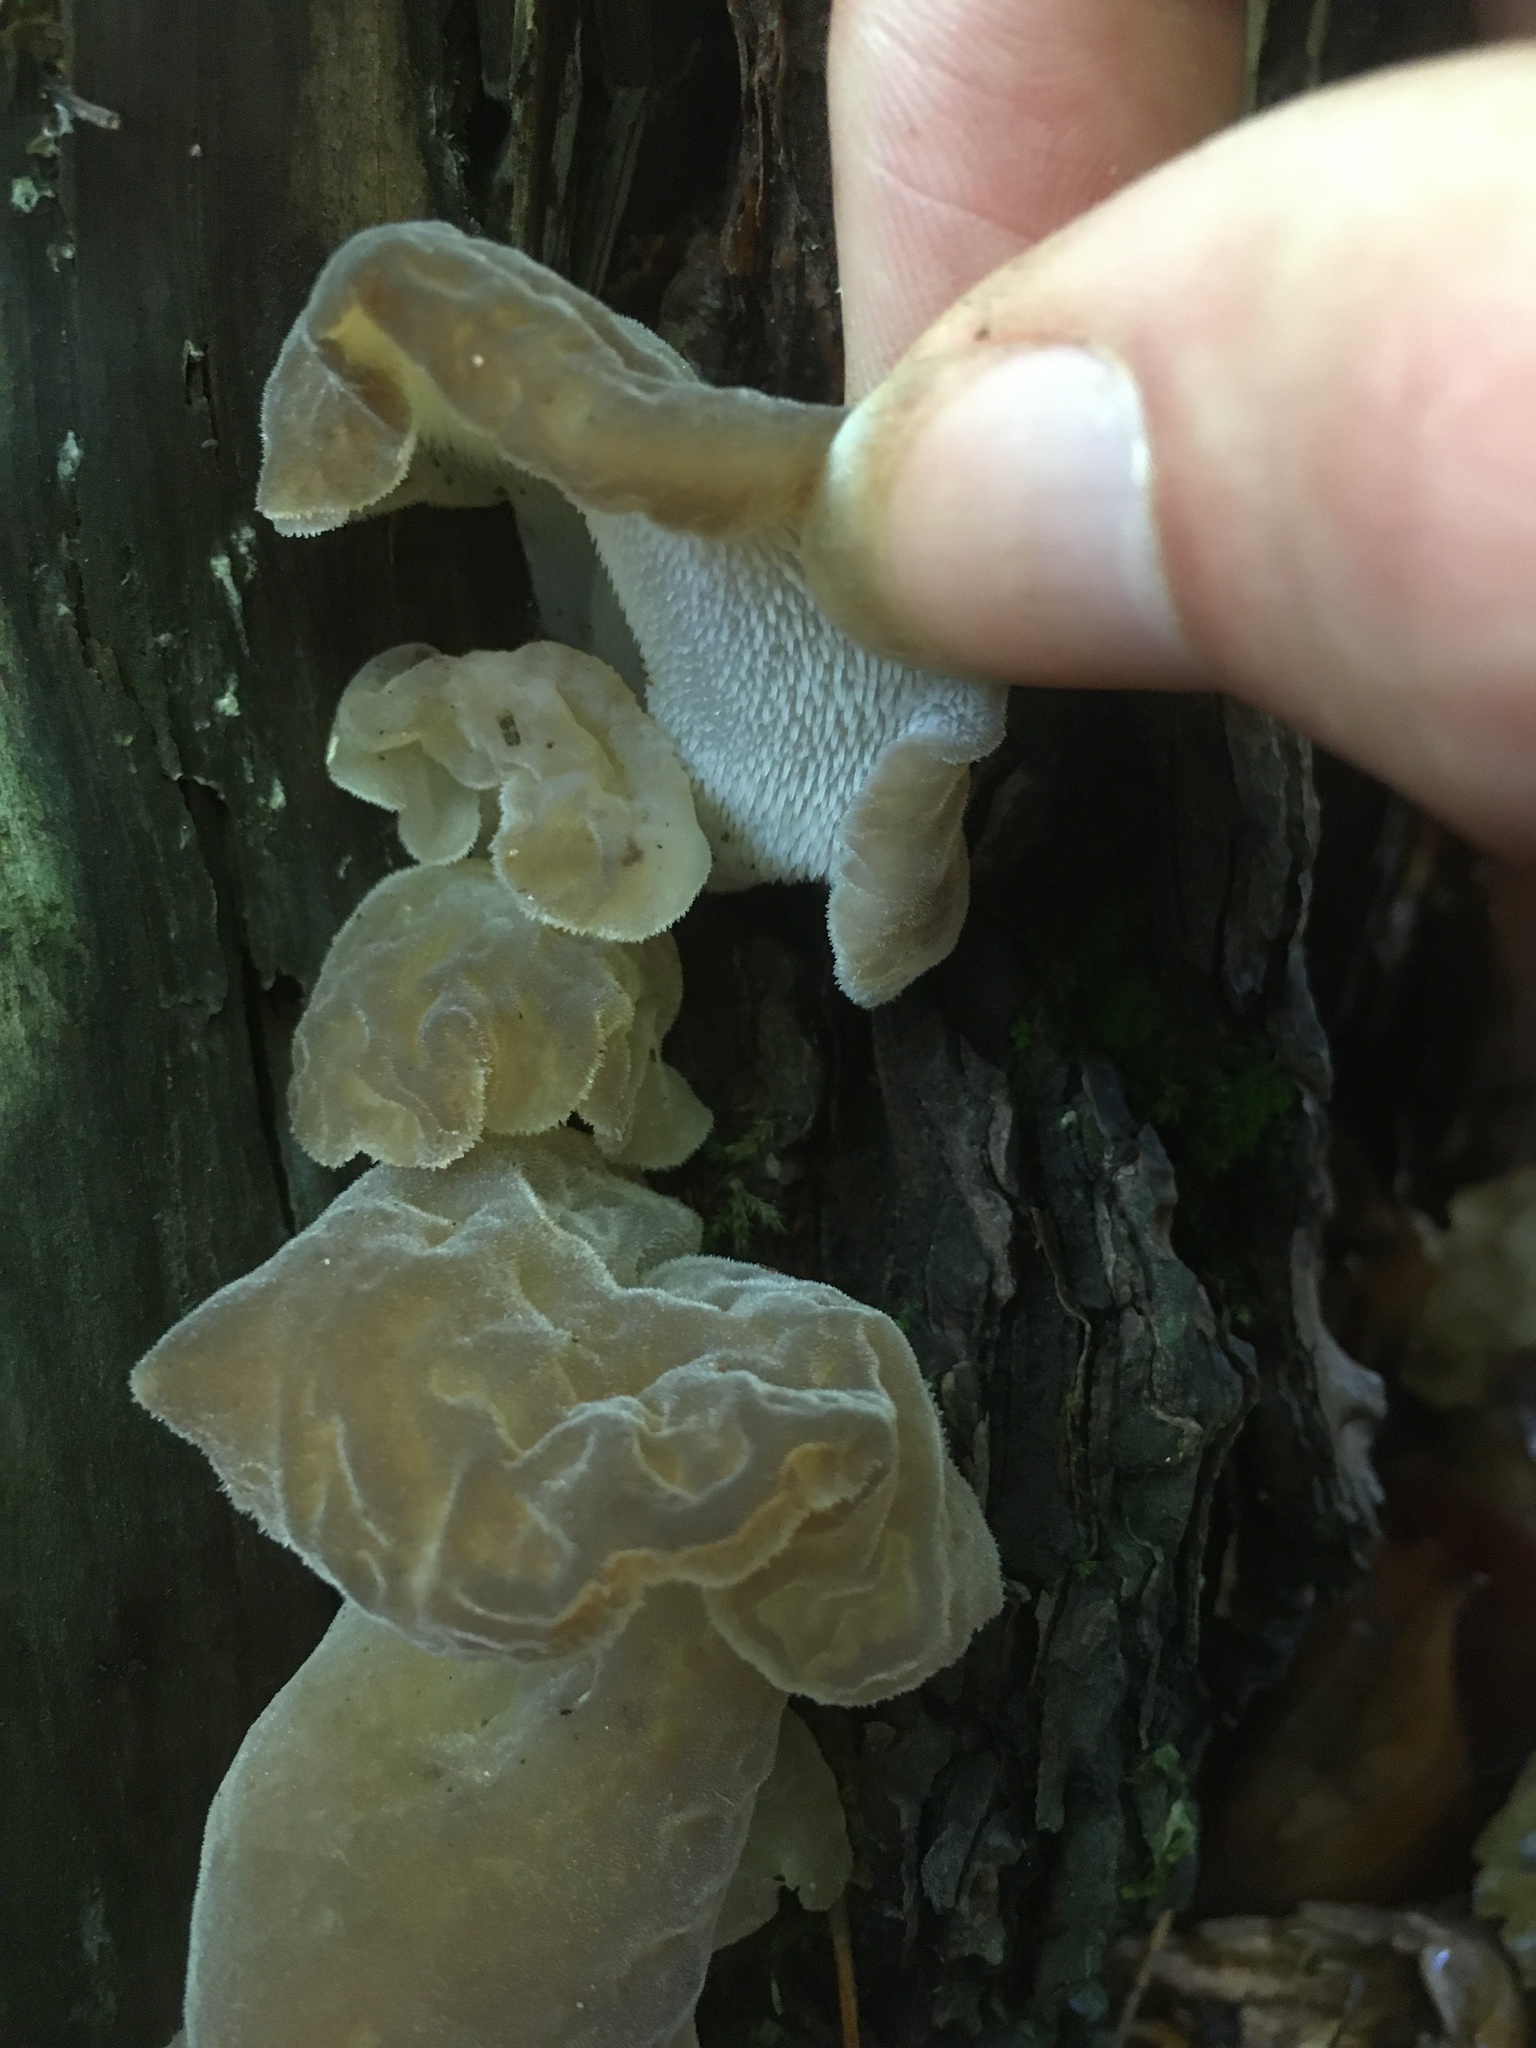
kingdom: Fungi
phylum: Basidiomycota
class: Agaricomycetes
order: Auriculariales
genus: Pseudohydnum
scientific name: Pseudohydnum gelatinosum
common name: Jelly tongue
